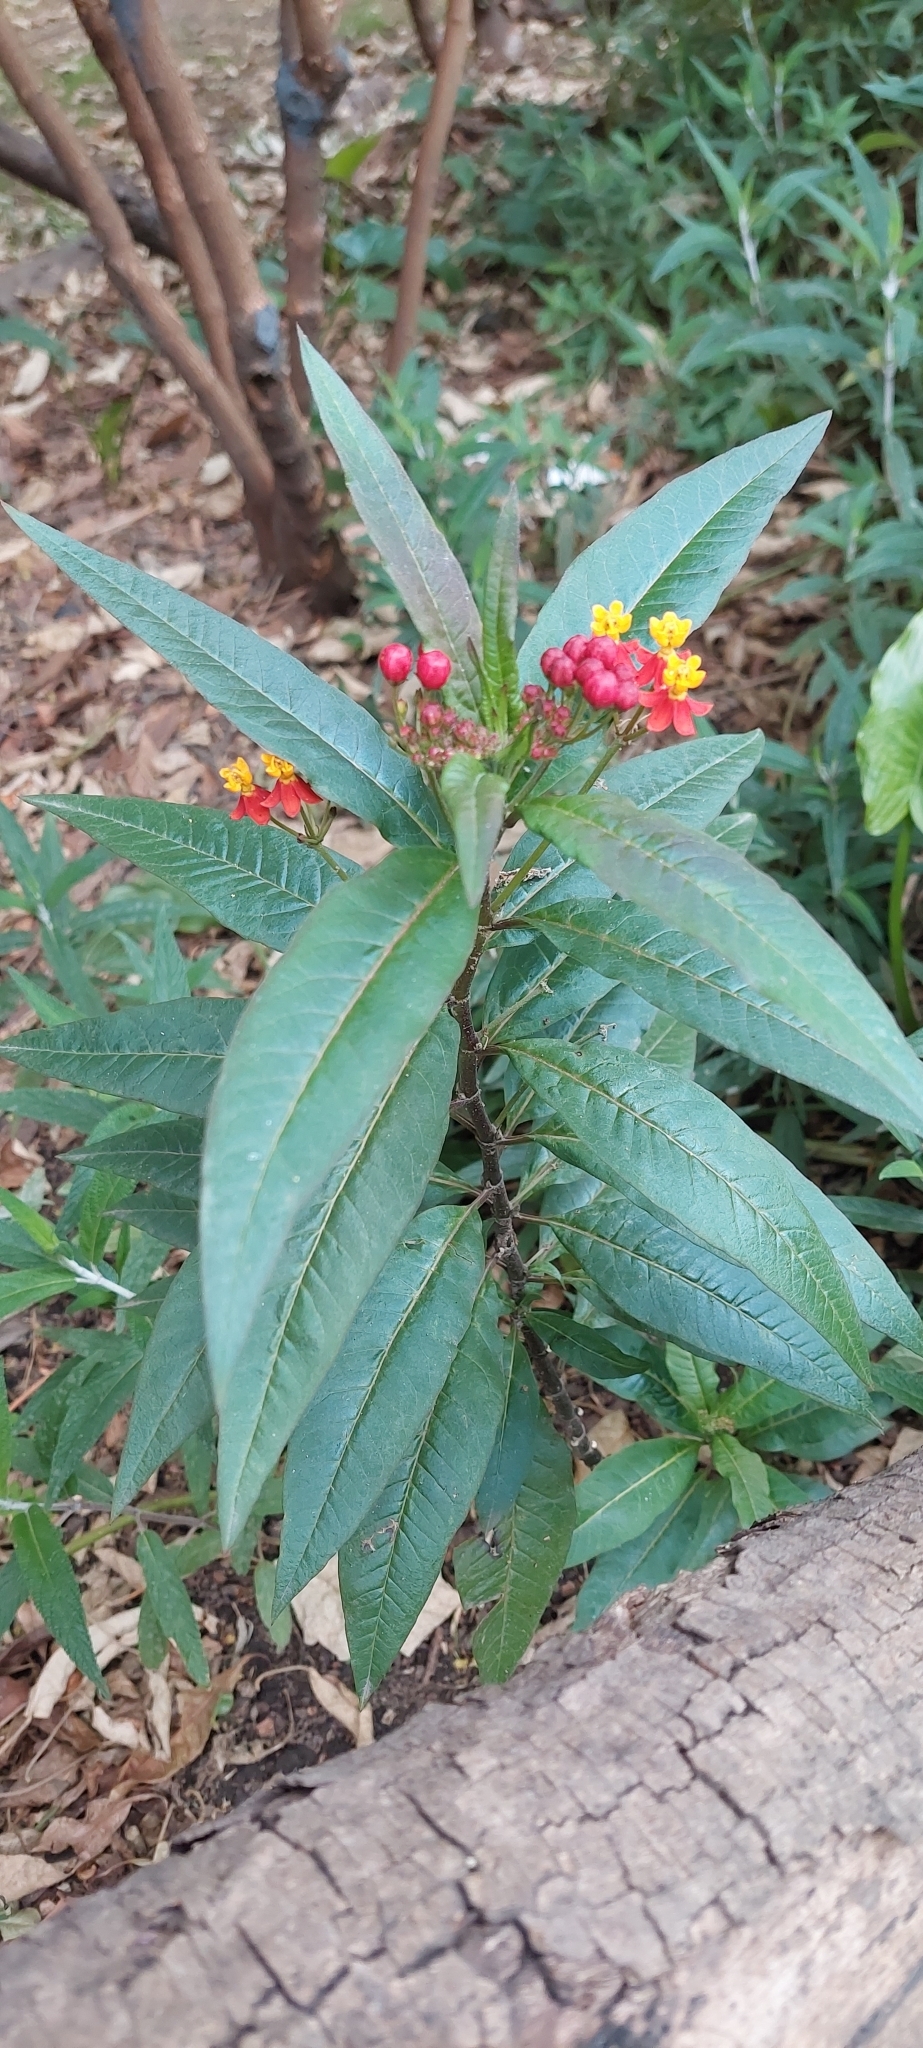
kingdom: Plantae
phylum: Tracheophyta
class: Magnoliopsida
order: Gentianales
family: Apocynaceae
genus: Asclepias
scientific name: Asclepias curassavica
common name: Bloodflower
